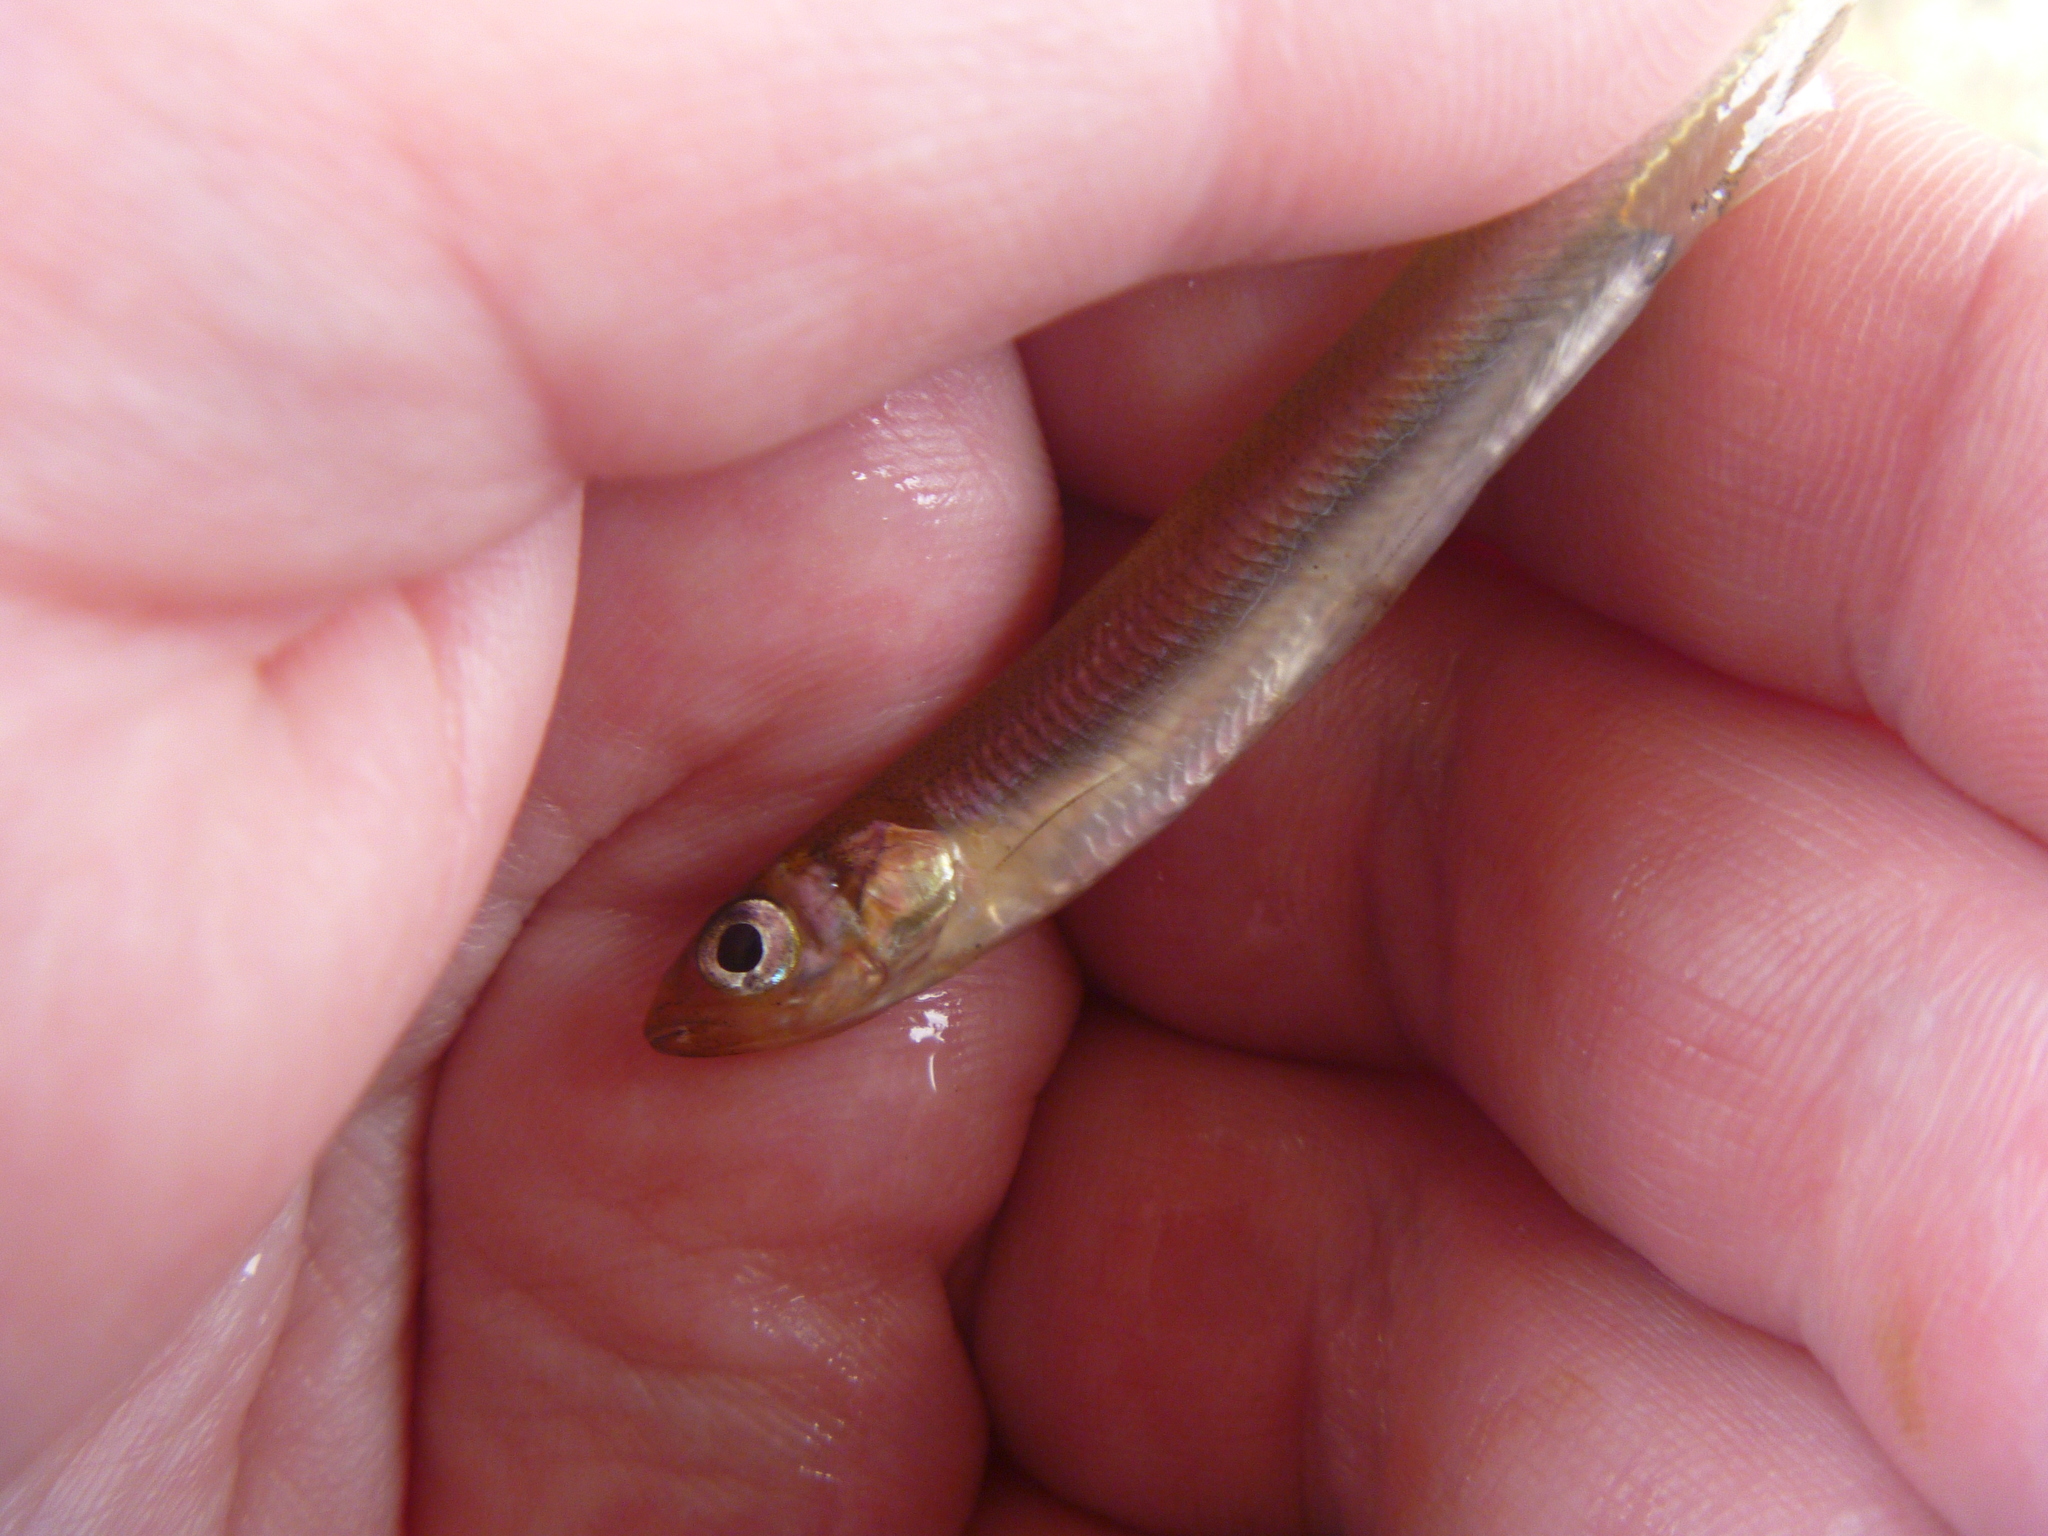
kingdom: Animalia
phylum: Chordata
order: Osmeriformes
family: Retropinnidae
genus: Retropinna
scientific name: Retropinna retropinna
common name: Common smelt
